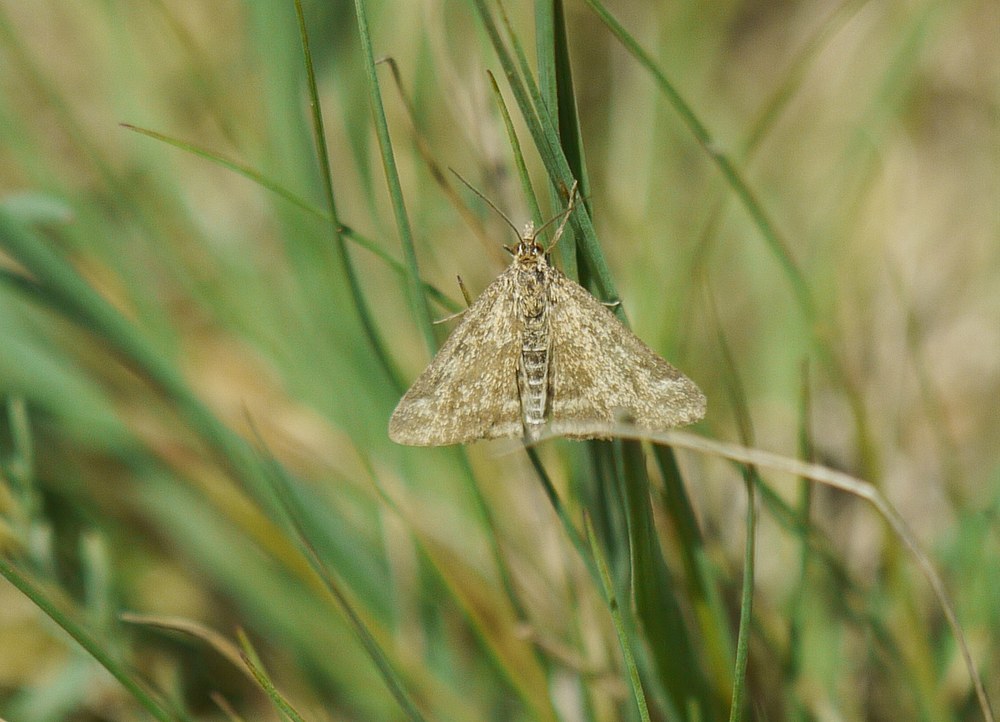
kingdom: Animalia
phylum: Arthropoda
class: Insecta
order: Lepidoptera
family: Crambidae
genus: Pyrausta
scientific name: Pyrausta despicata
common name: Straw-barred pearl
